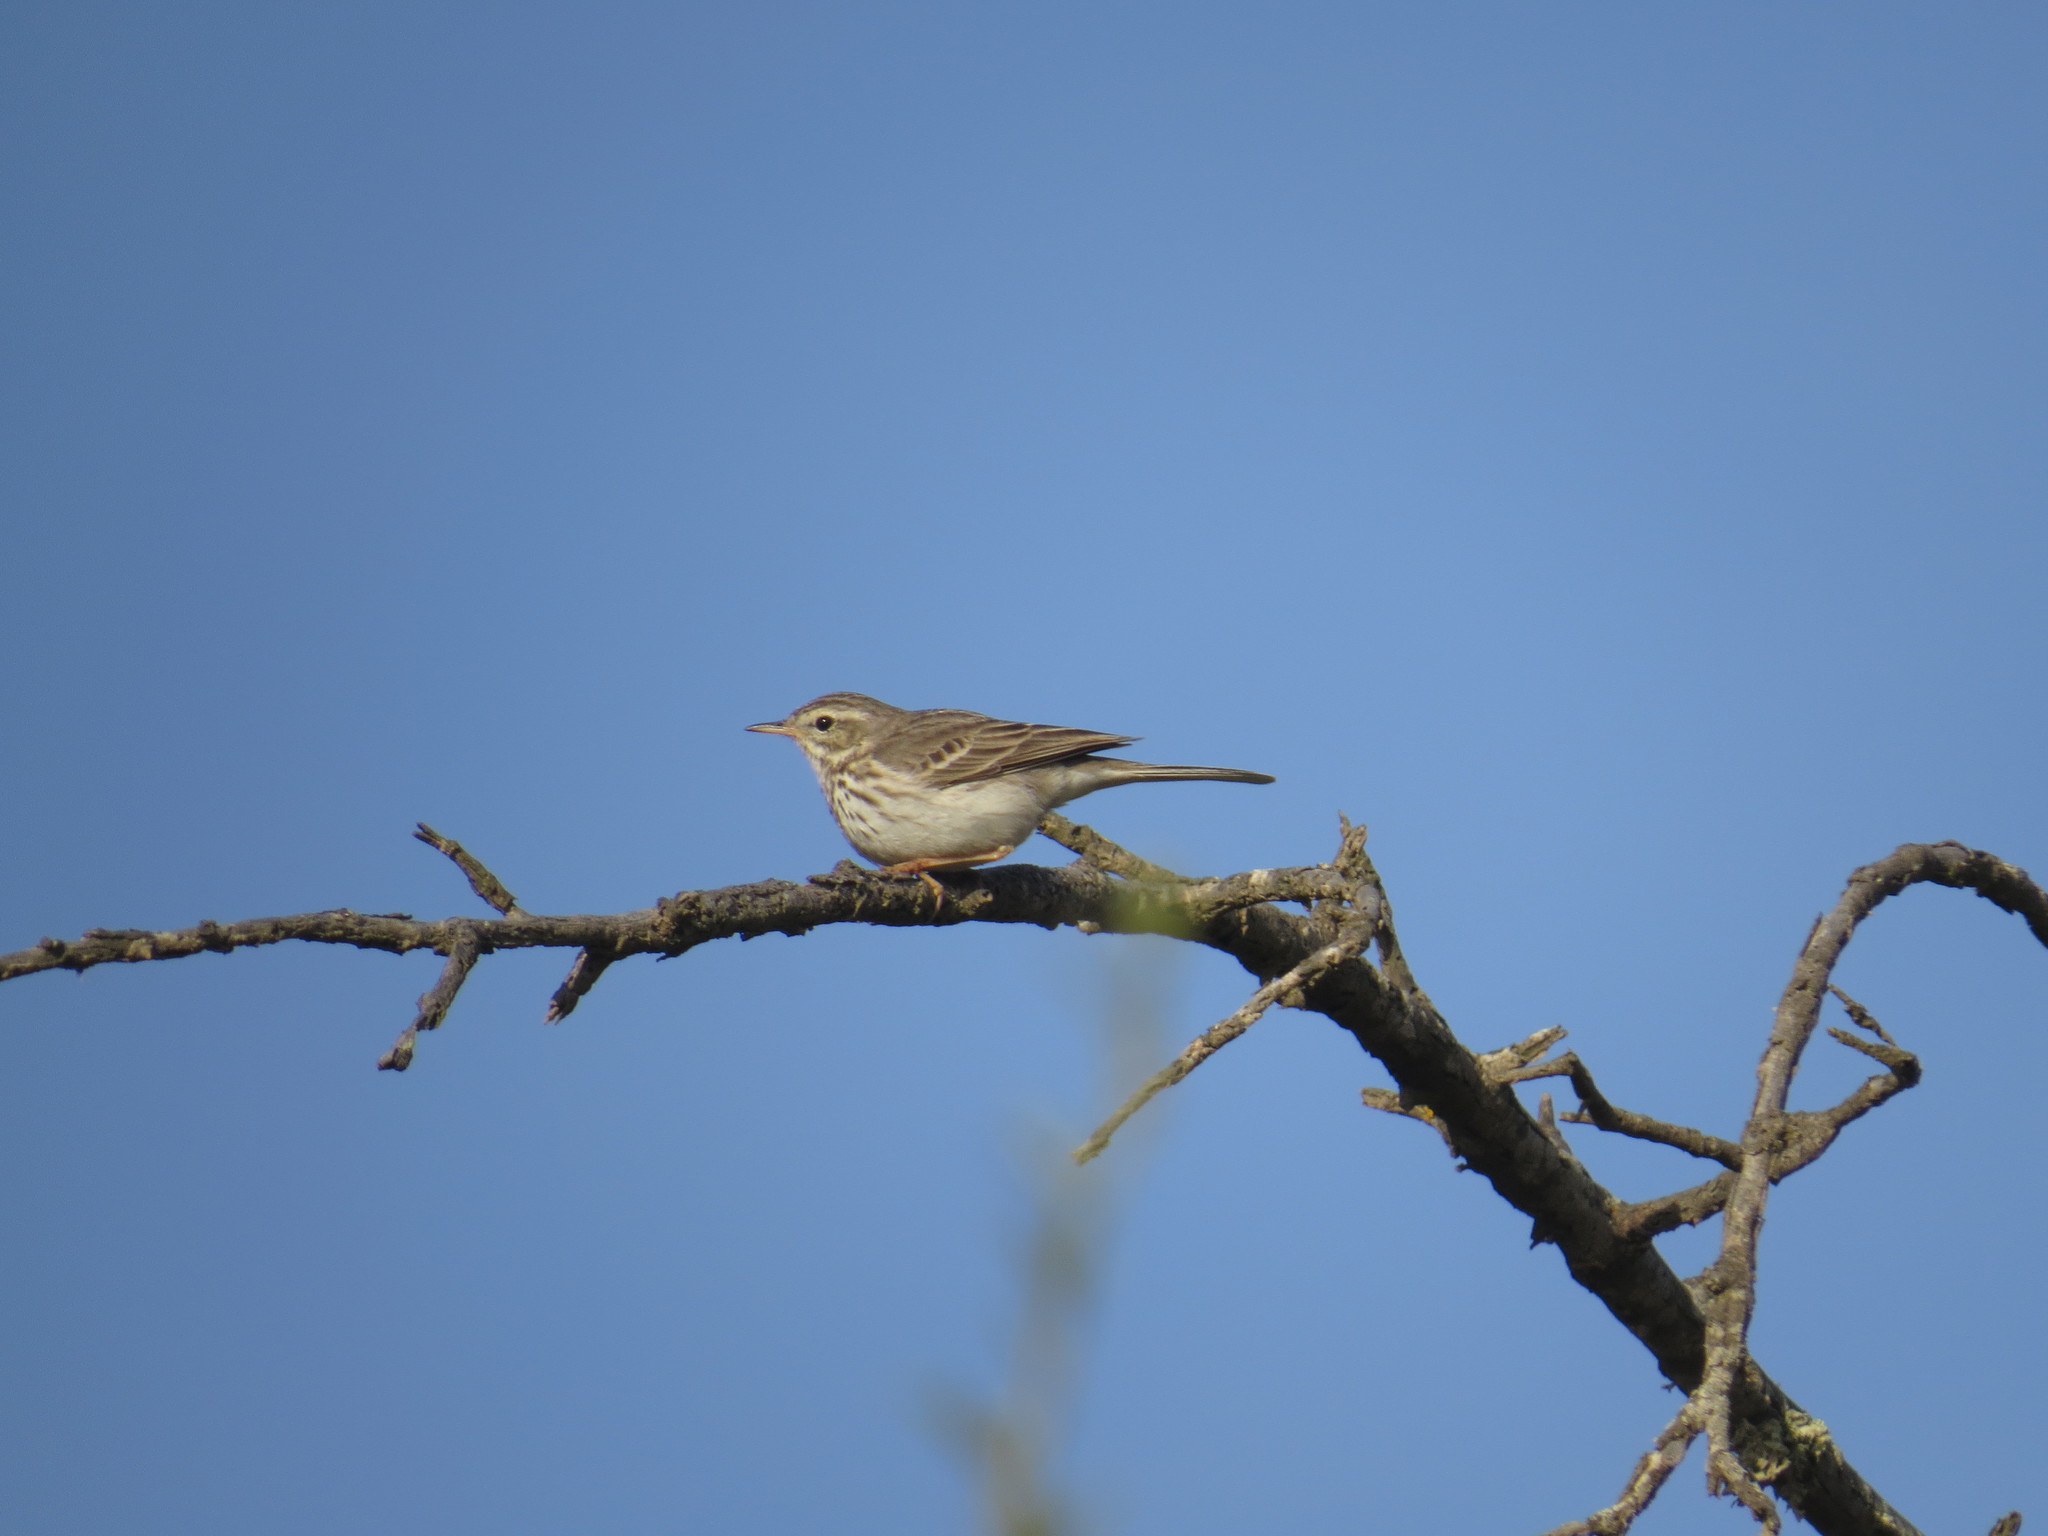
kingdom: Animalia
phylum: Chordata
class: Aves
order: Passeriformes
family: Motacillidae
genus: Anthus
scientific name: Anthus berthelotii
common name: Berthelot's pipit
